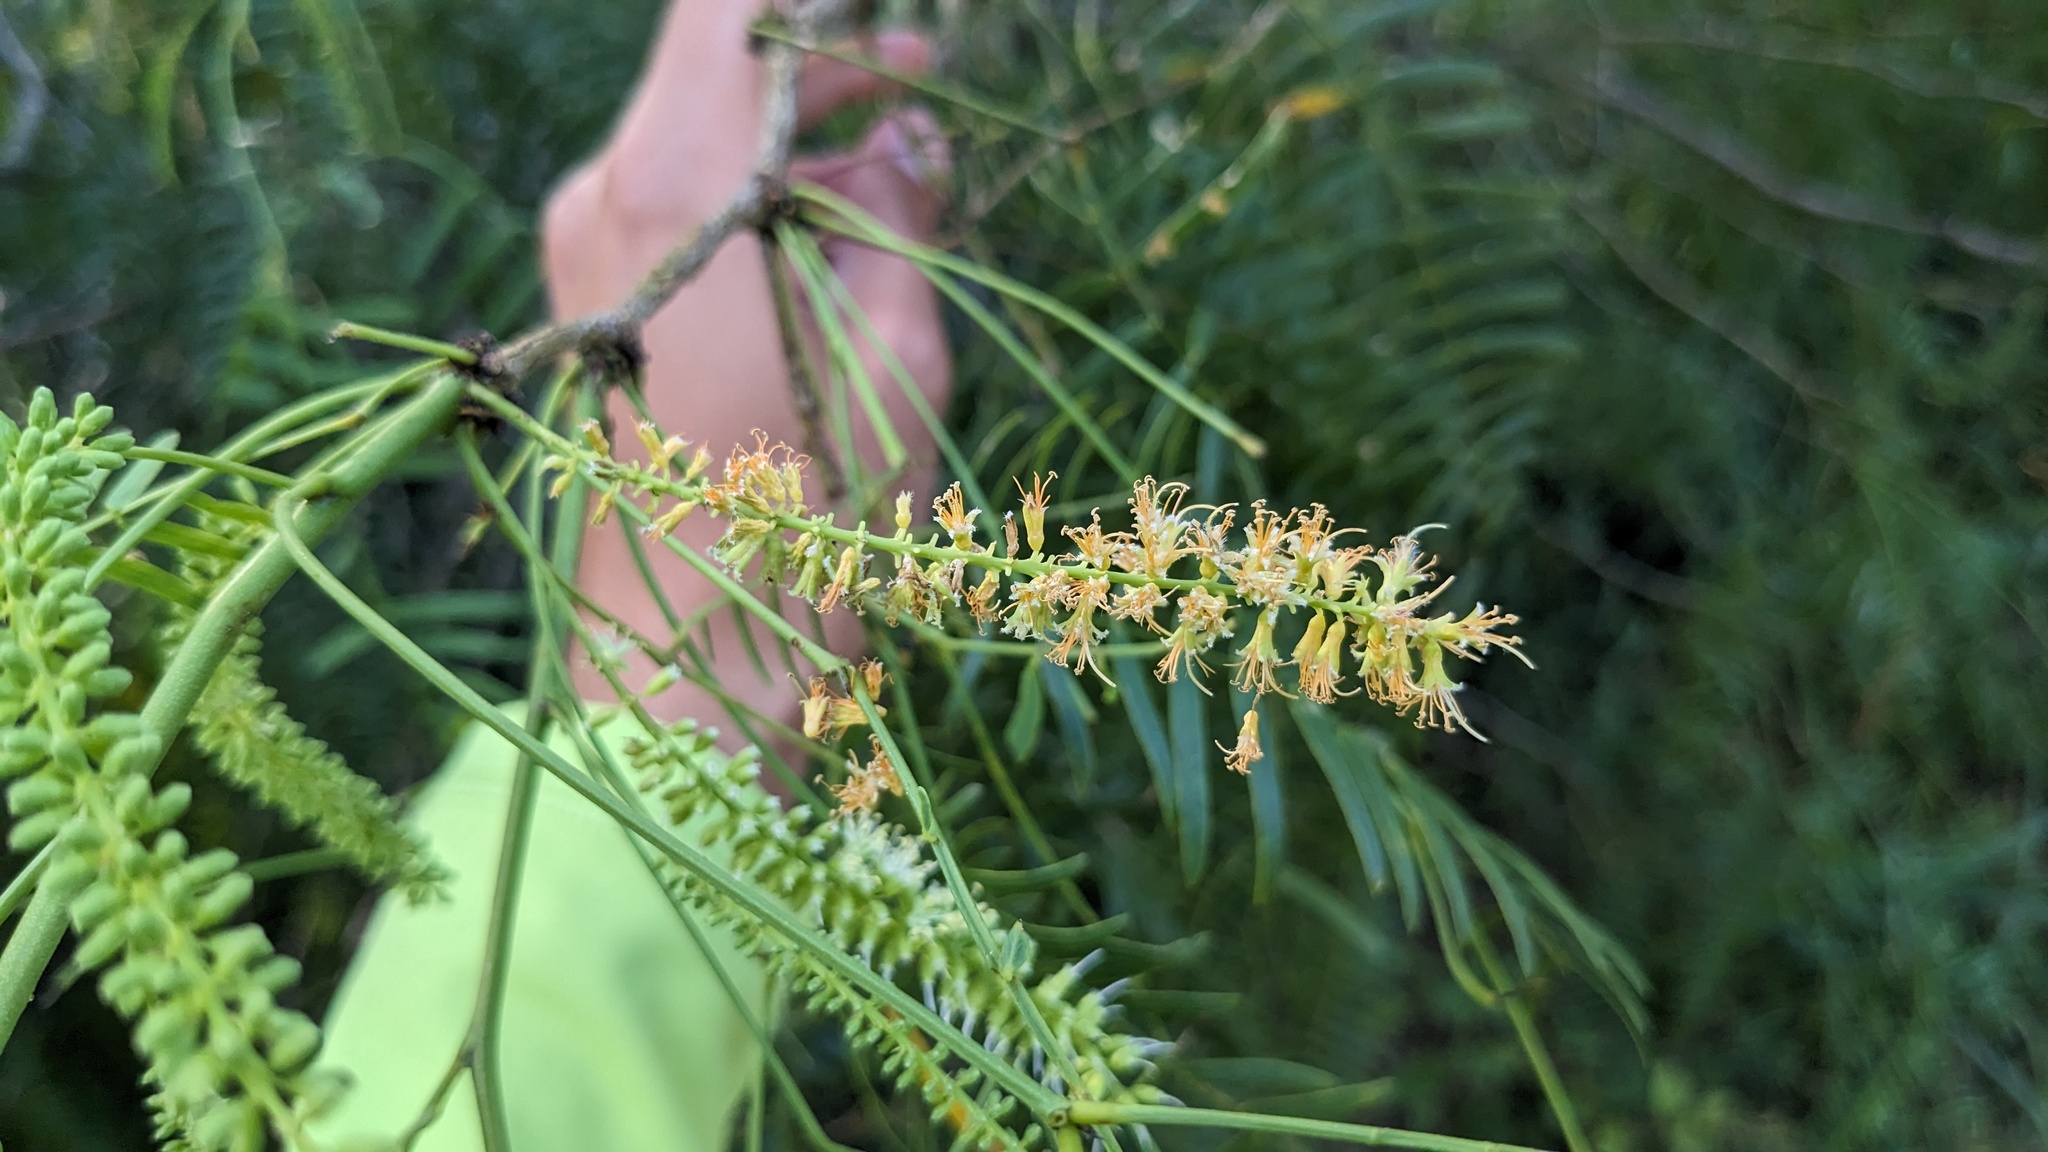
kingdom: Plantae
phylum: Tracheophyta
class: Magnoliopsida
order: Fabales
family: Fabaceae
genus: Prosopis
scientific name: Prosopis glandulosa
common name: Honey mesquite
